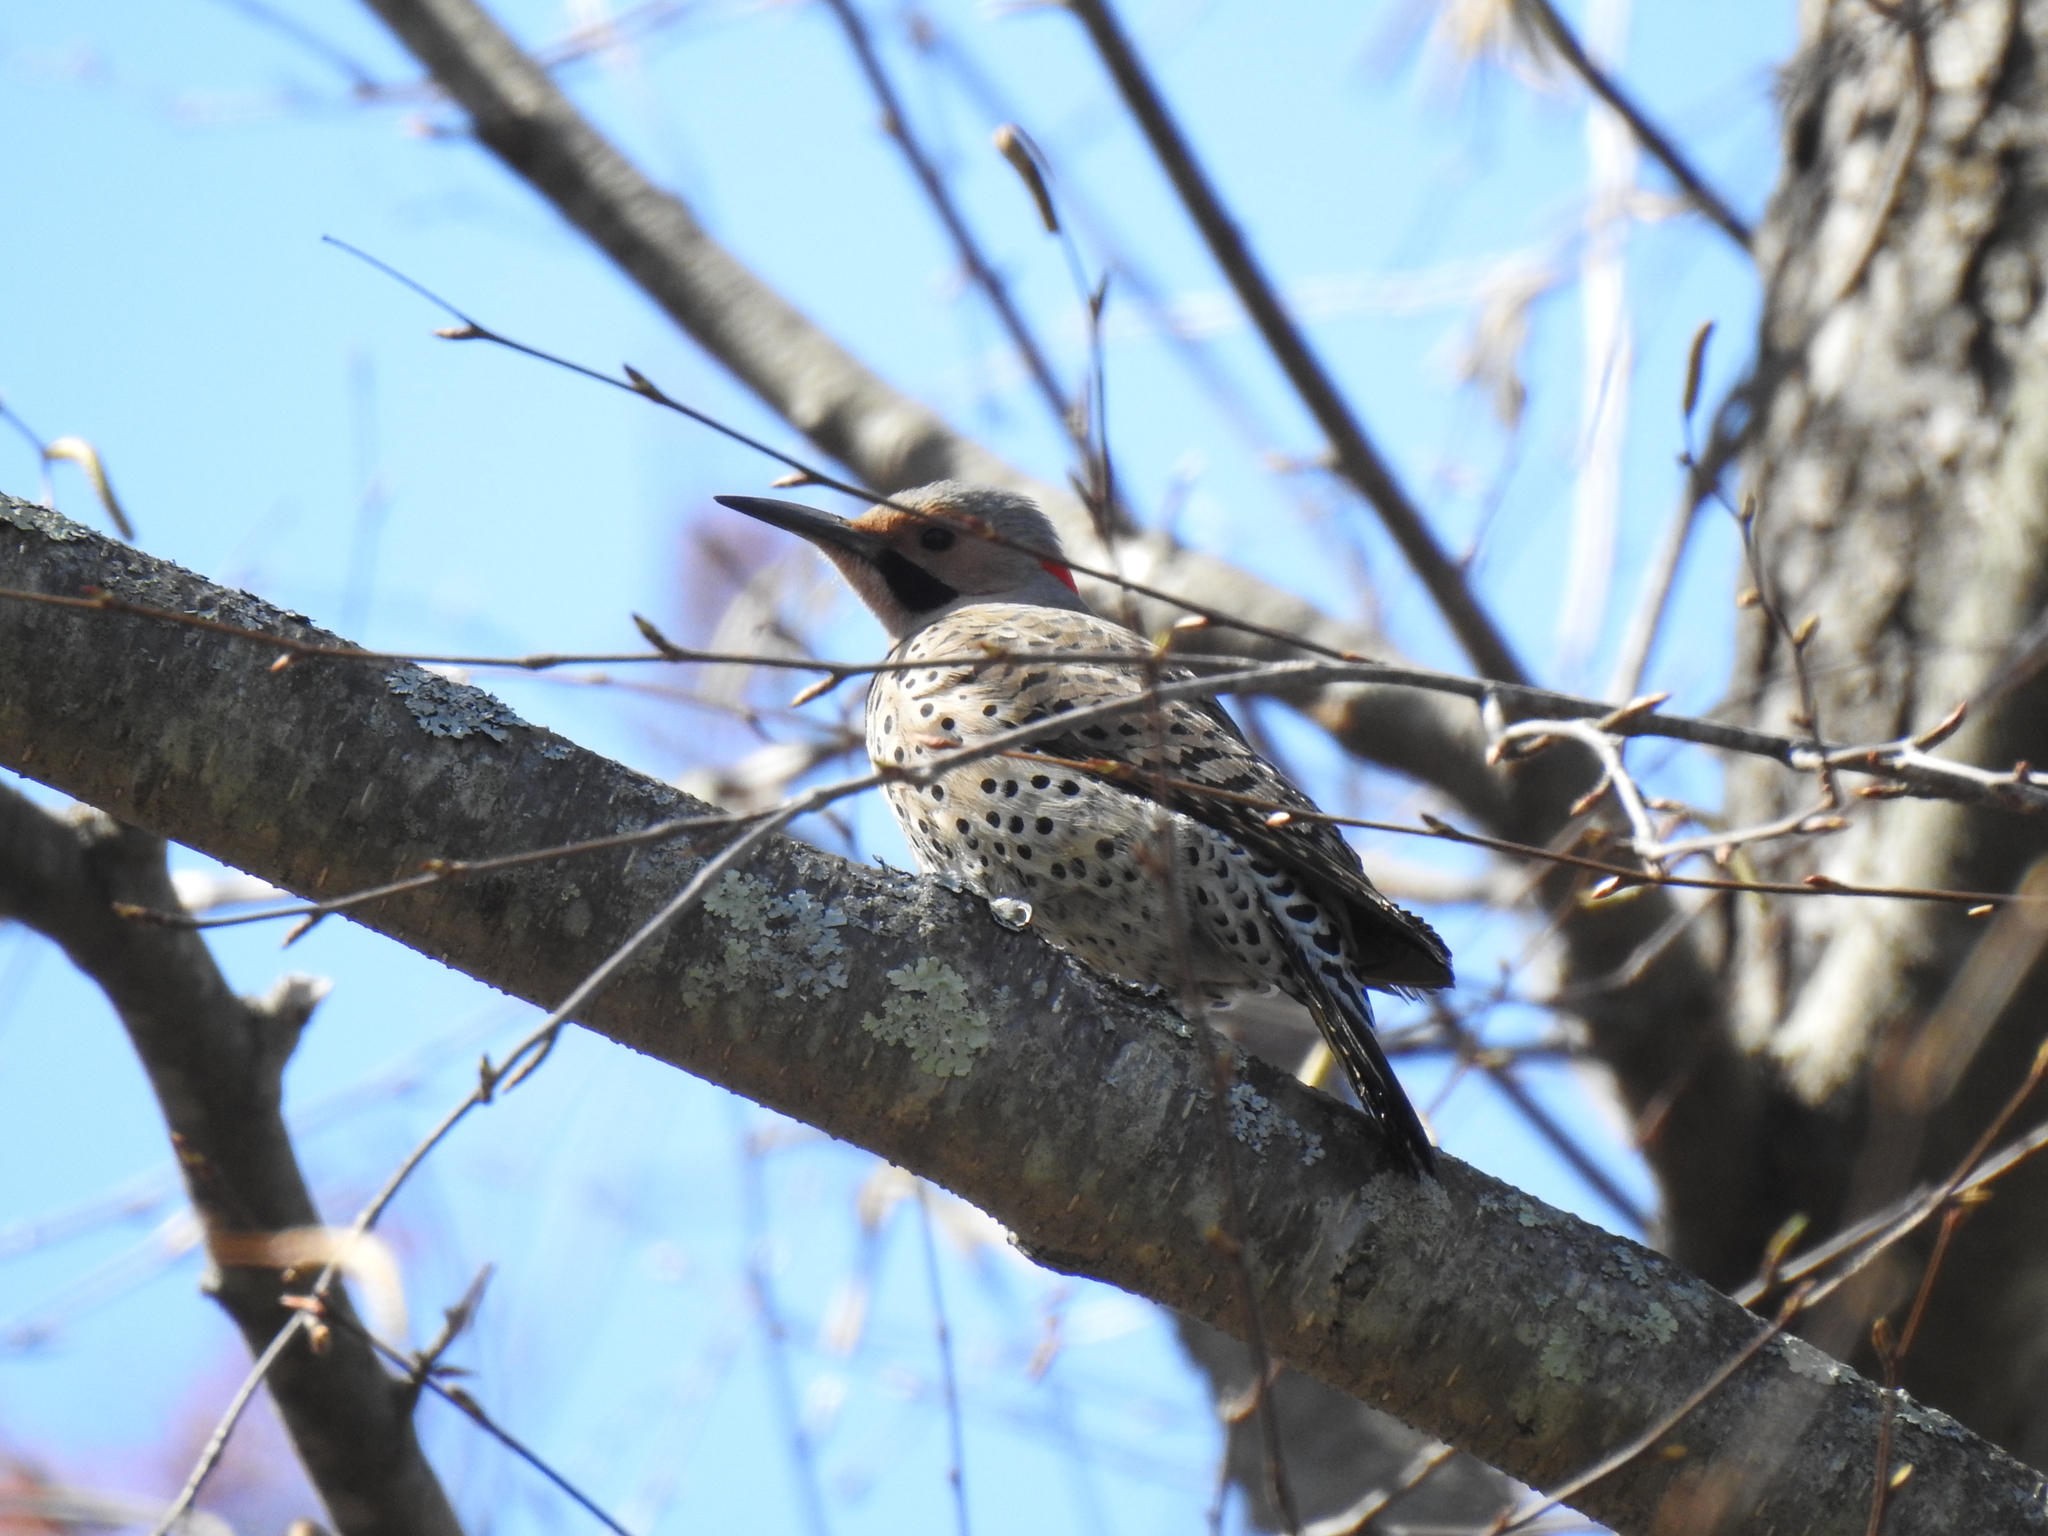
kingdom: Animalia
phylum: Chordata
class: Aves
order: Piciformes
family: Picidae
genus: Colaptes
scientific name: Colaptes auratus
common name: Northern flicker
